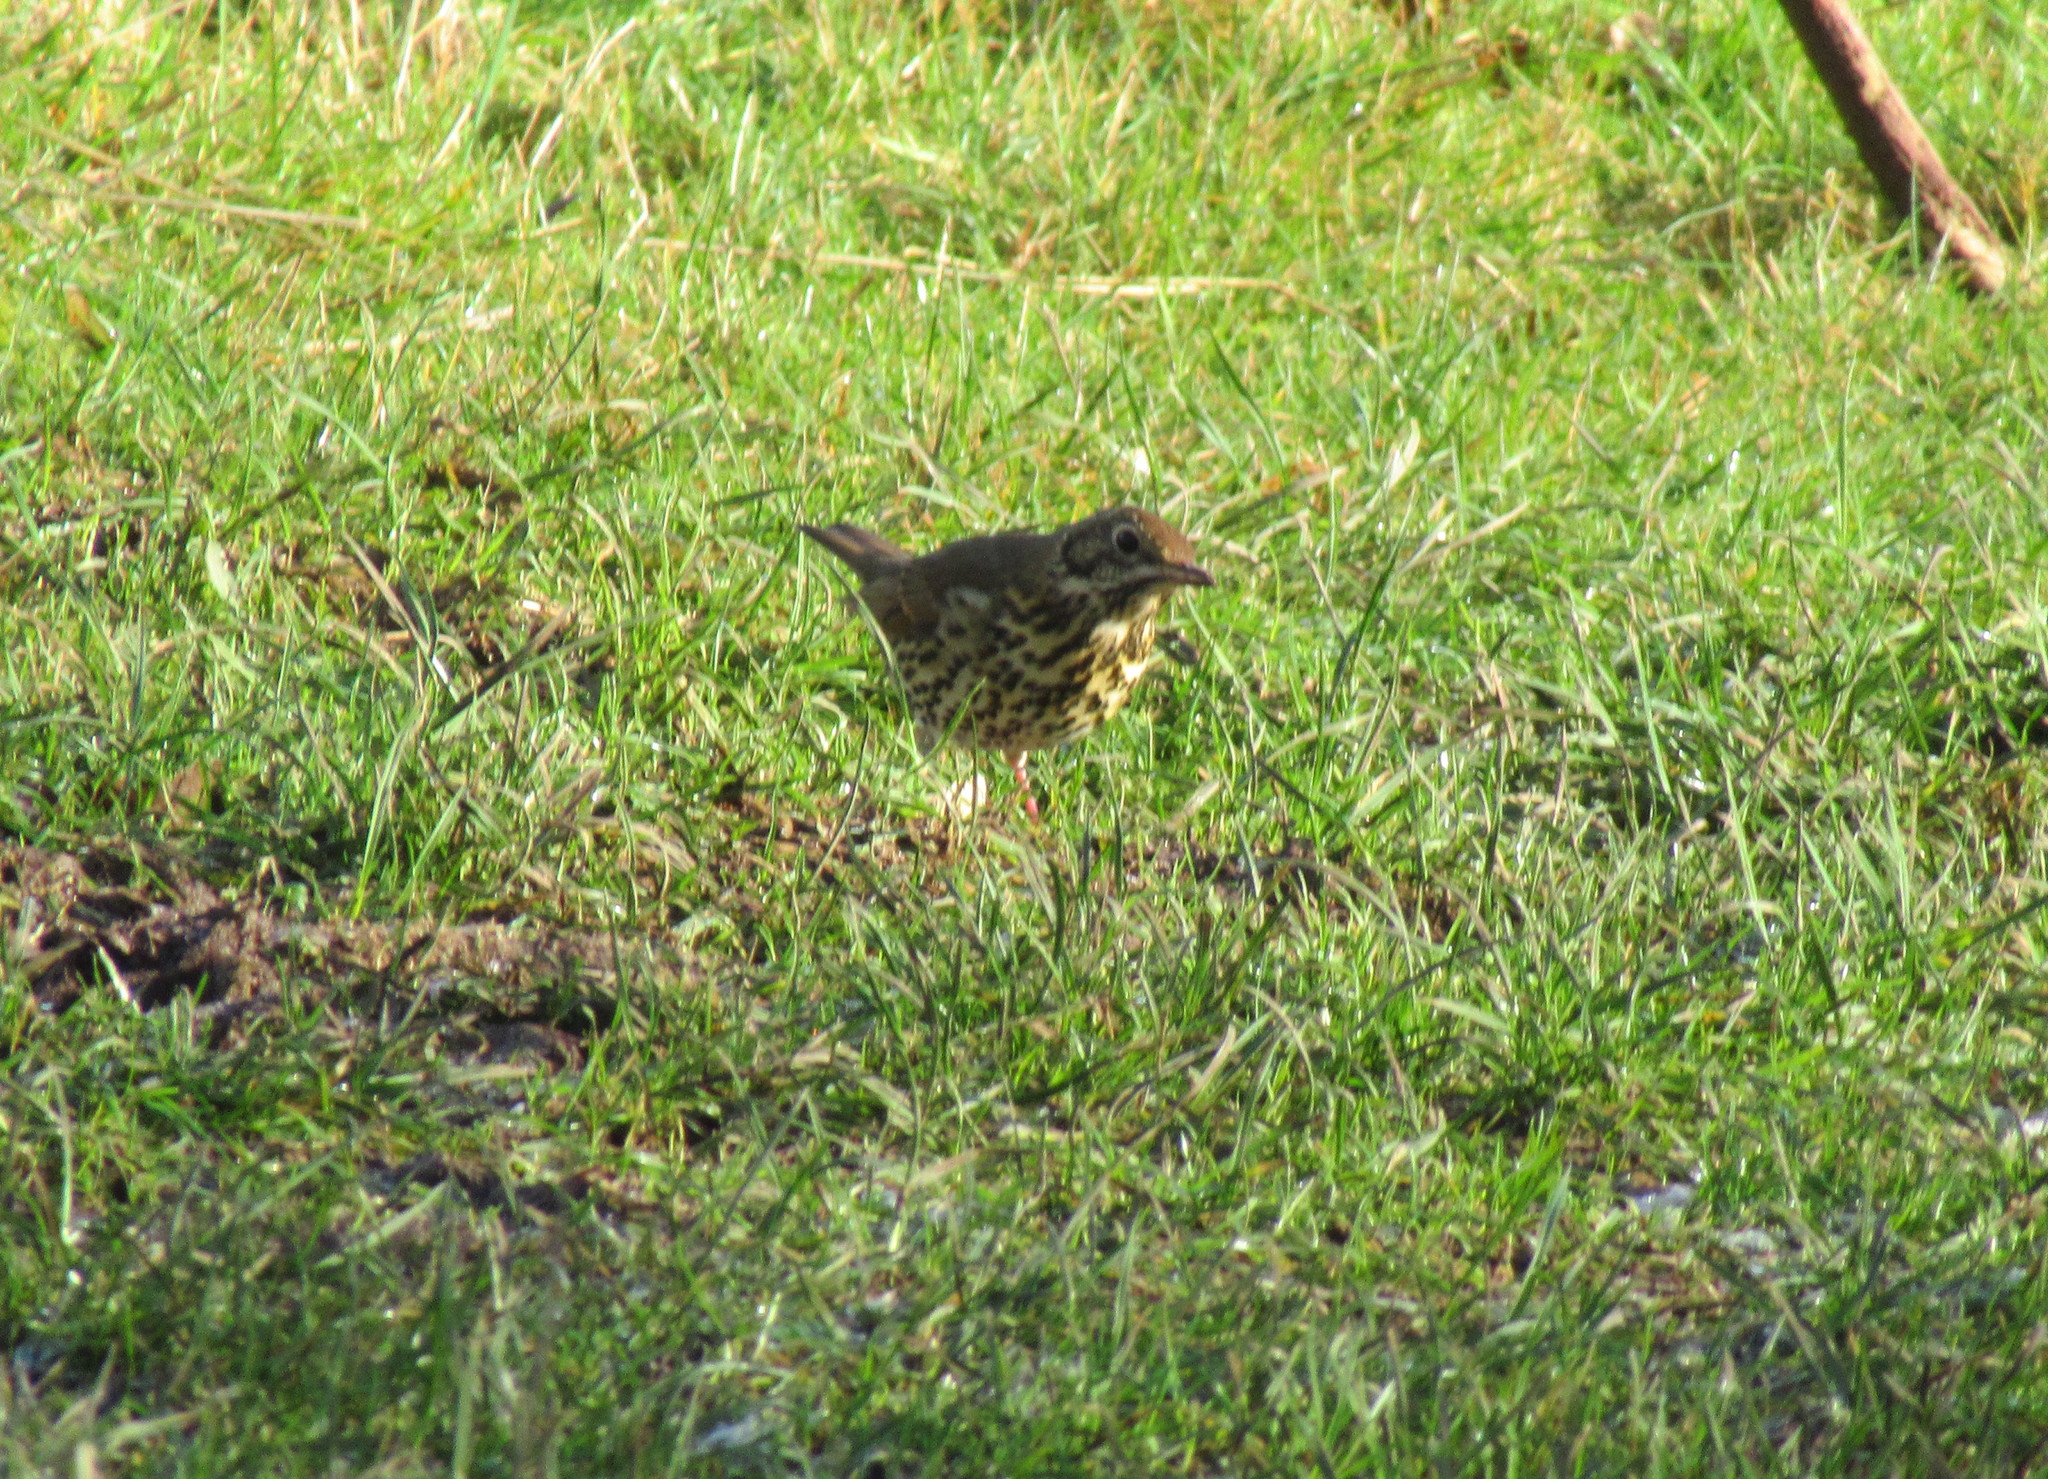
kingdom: Animalia
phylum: Chordata
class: Aves
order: Passeriformes
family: Turdidae
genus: Turdus
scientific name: Turdus philomelos
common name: Song thrush
